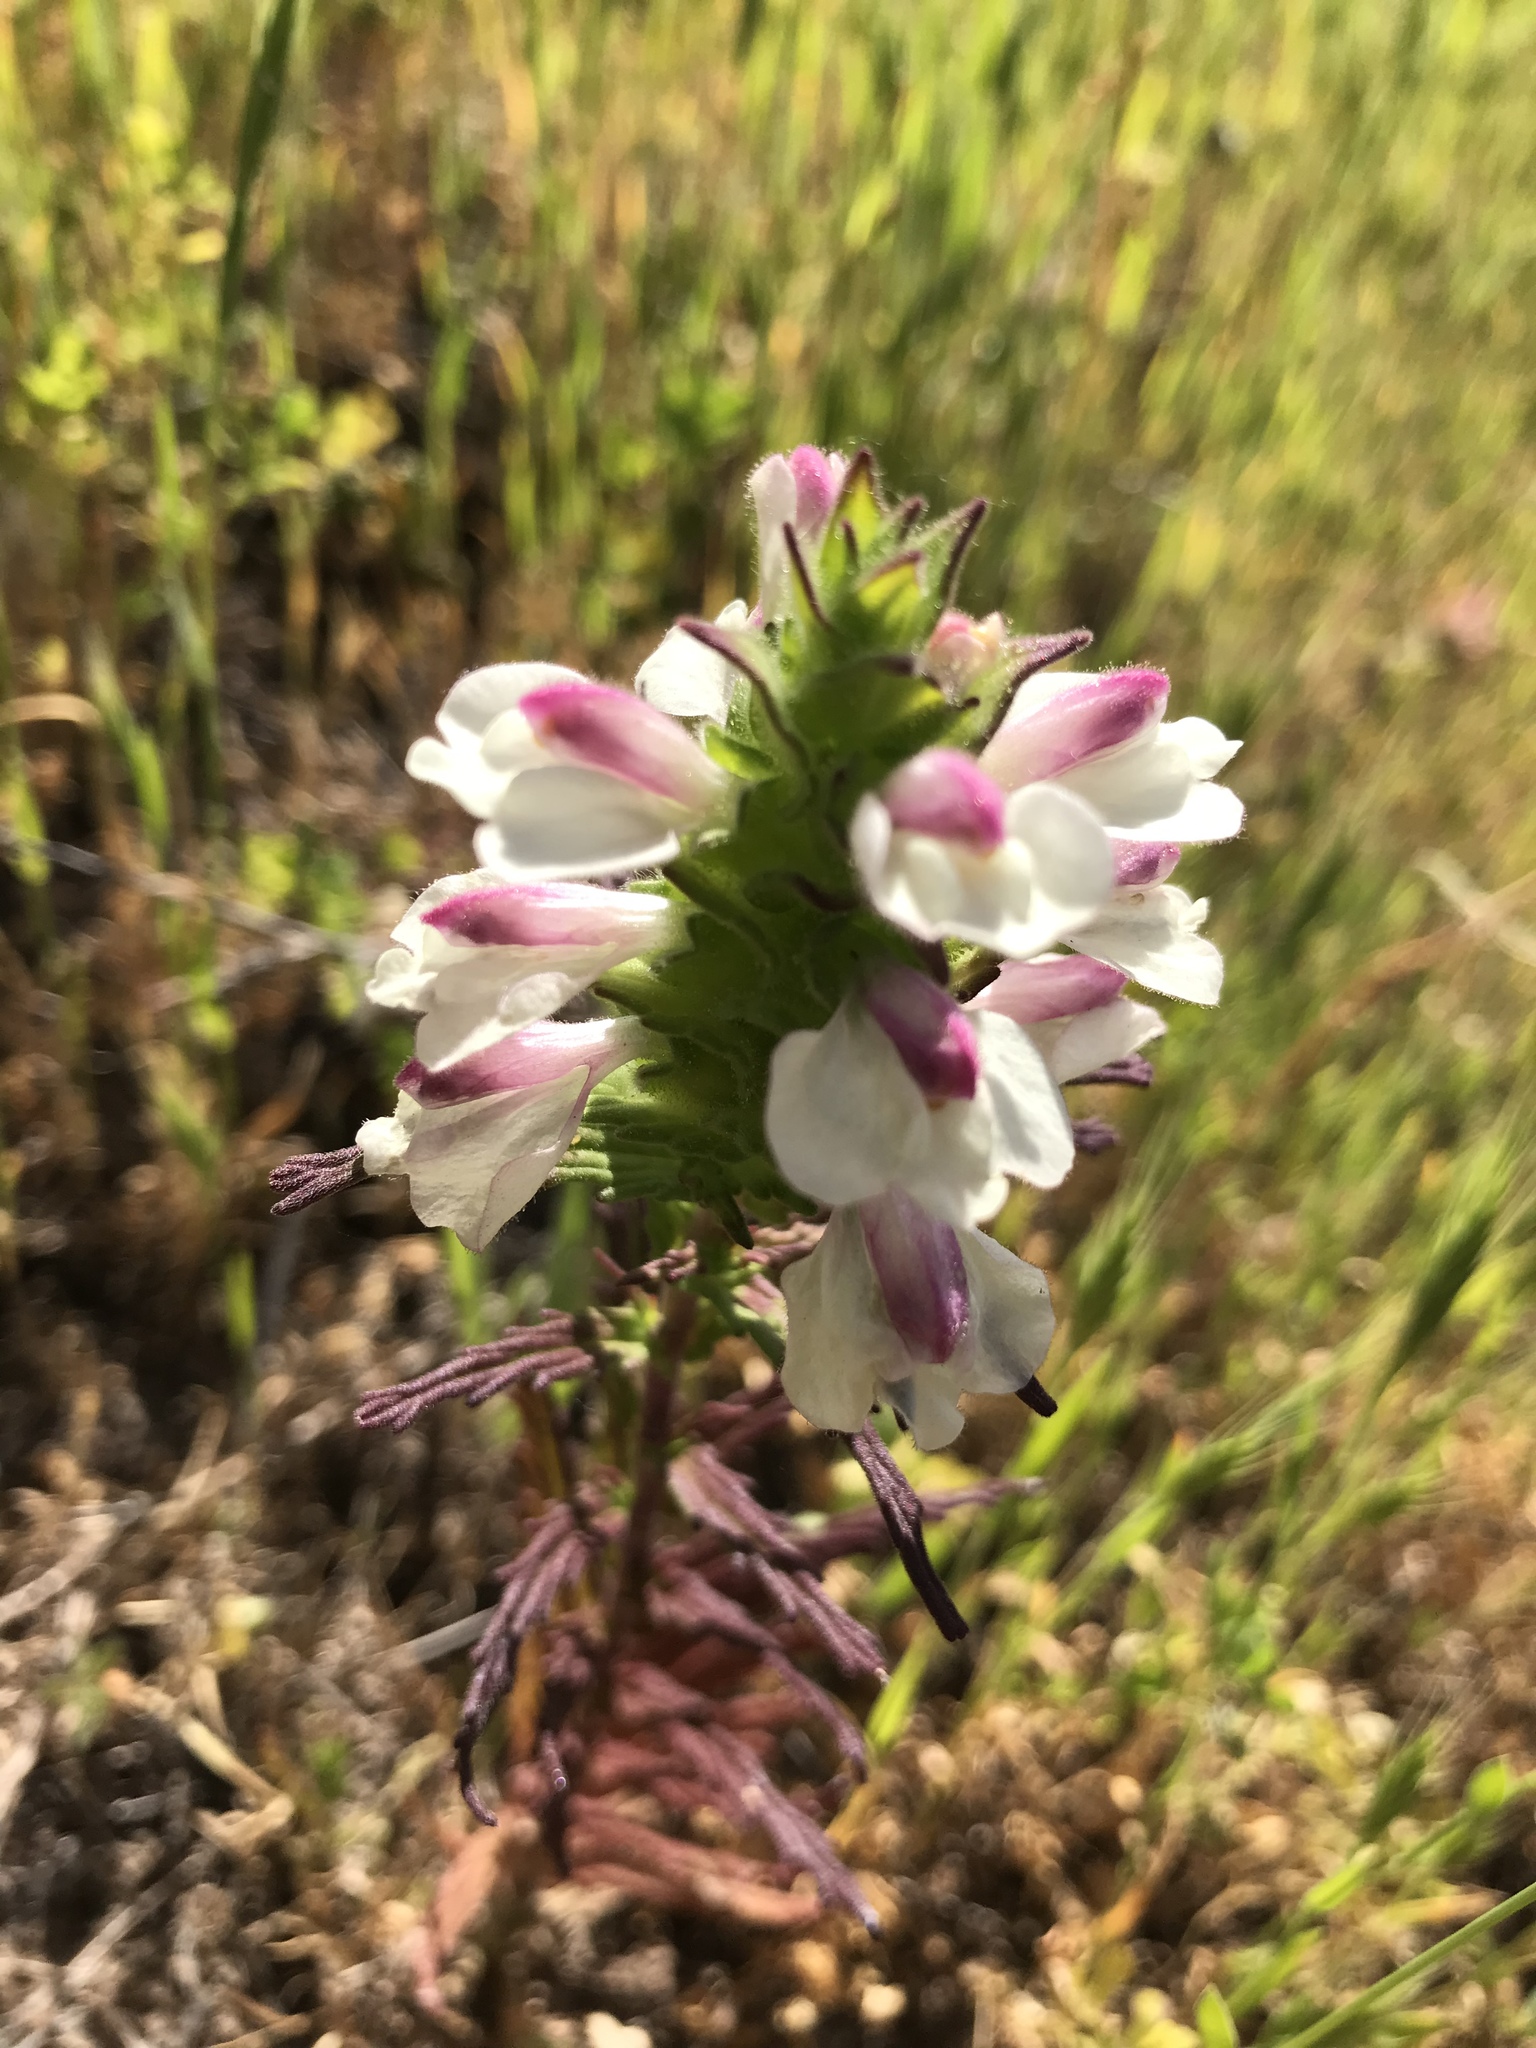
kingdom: Plantae
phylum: Tracheophyta
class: Magnoliopsida
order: Lamiales
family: Orobanchaceae
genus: Bellardia
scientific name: Bellardia trixago
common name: Mediterranean lineseed
